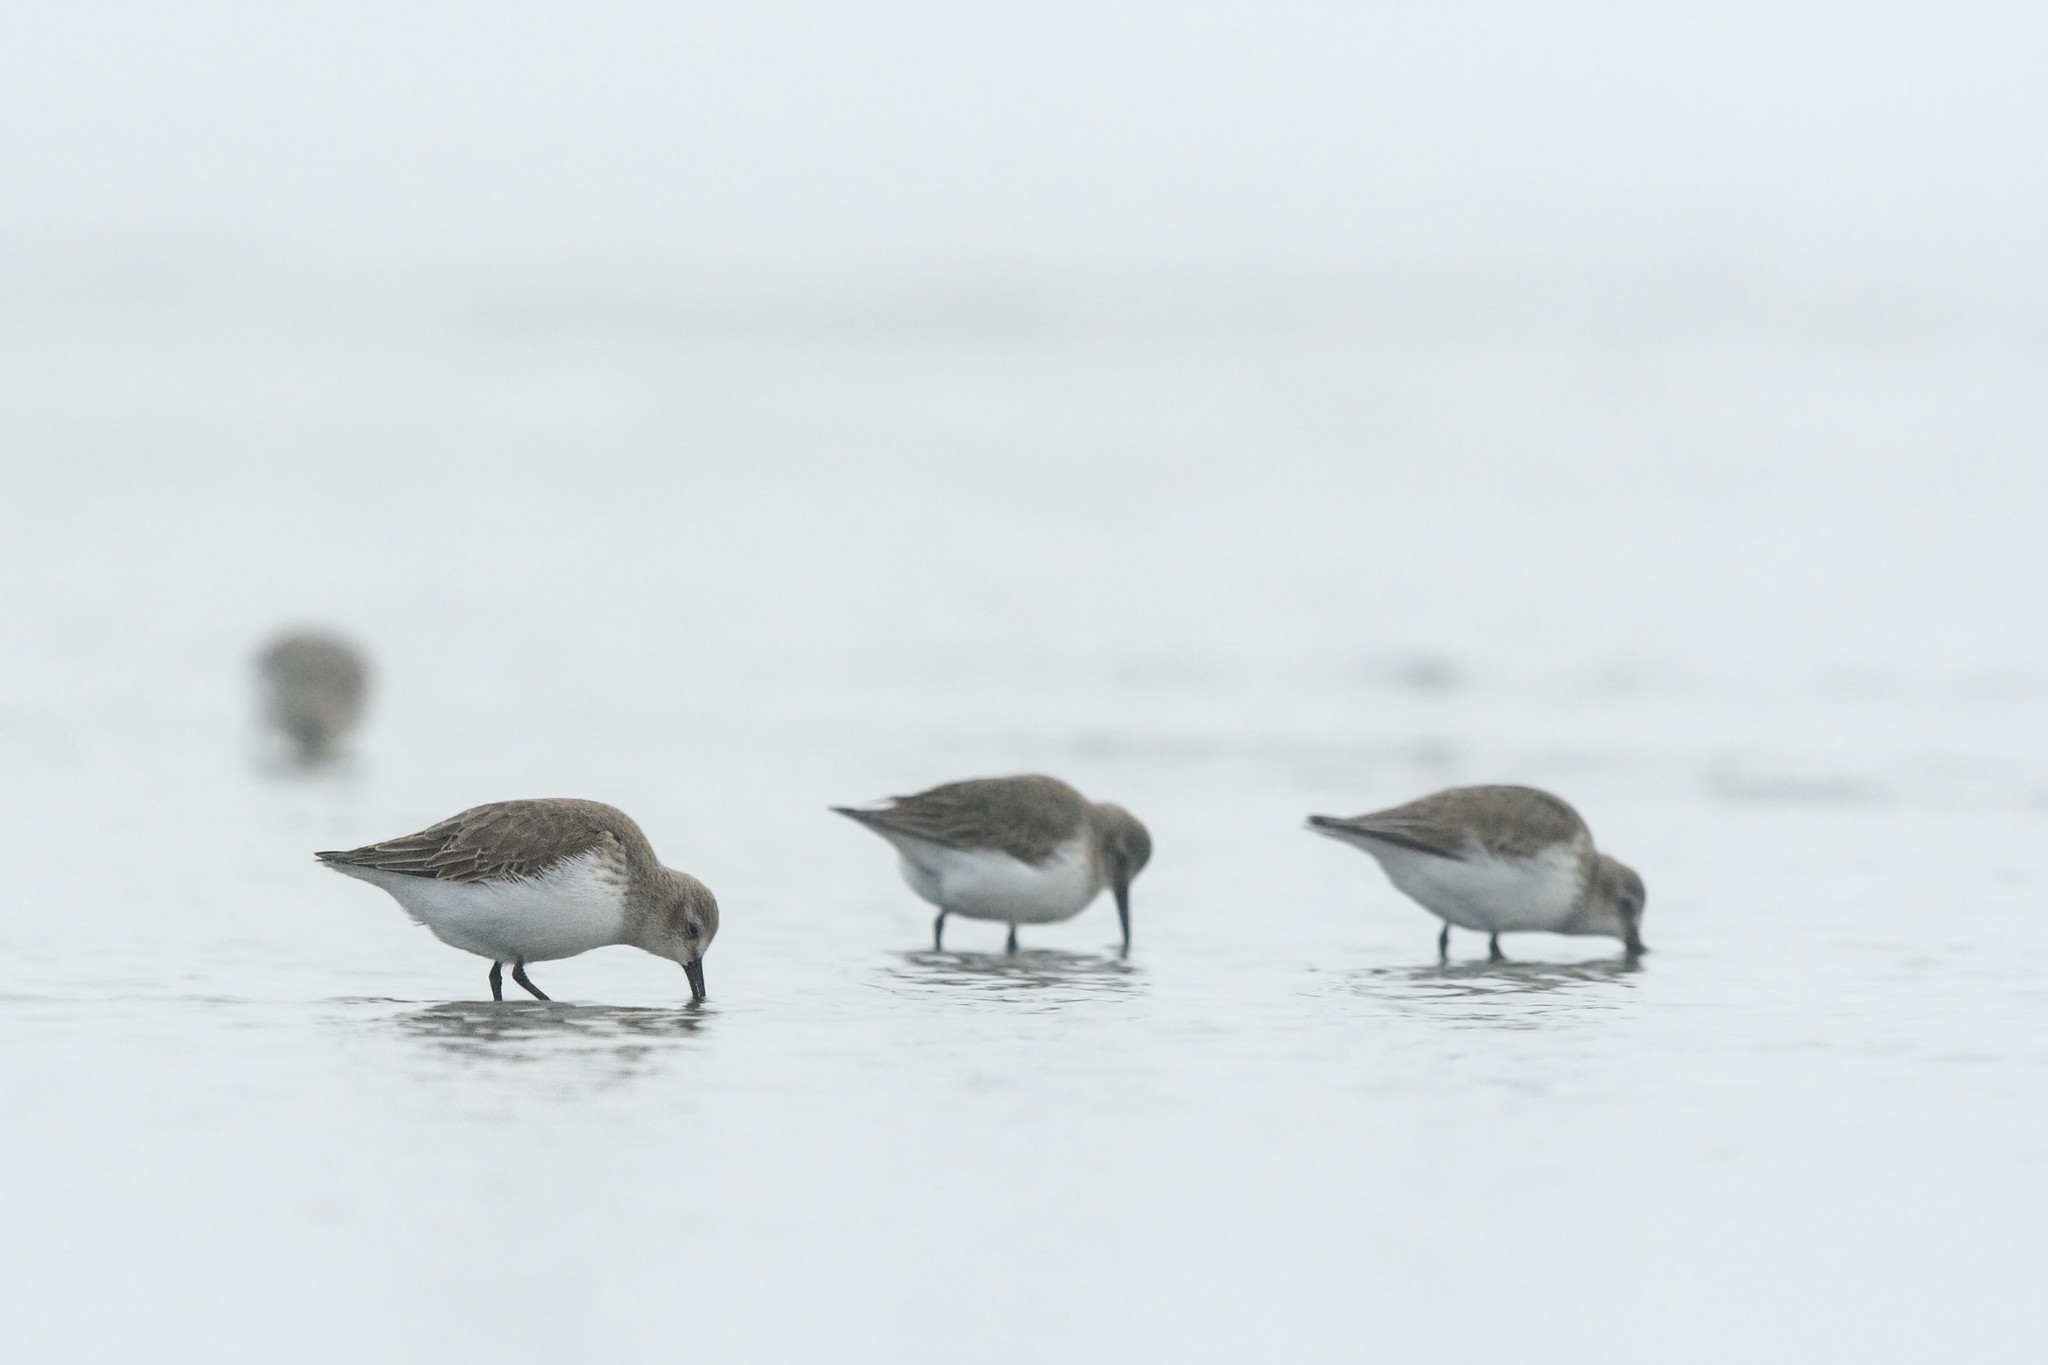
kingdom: Animalia
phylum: Chordata
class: Aves
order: Charadriiformes
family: Scolopacidae
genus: Calidris
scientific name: Calidris alpina
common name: Dunlin
